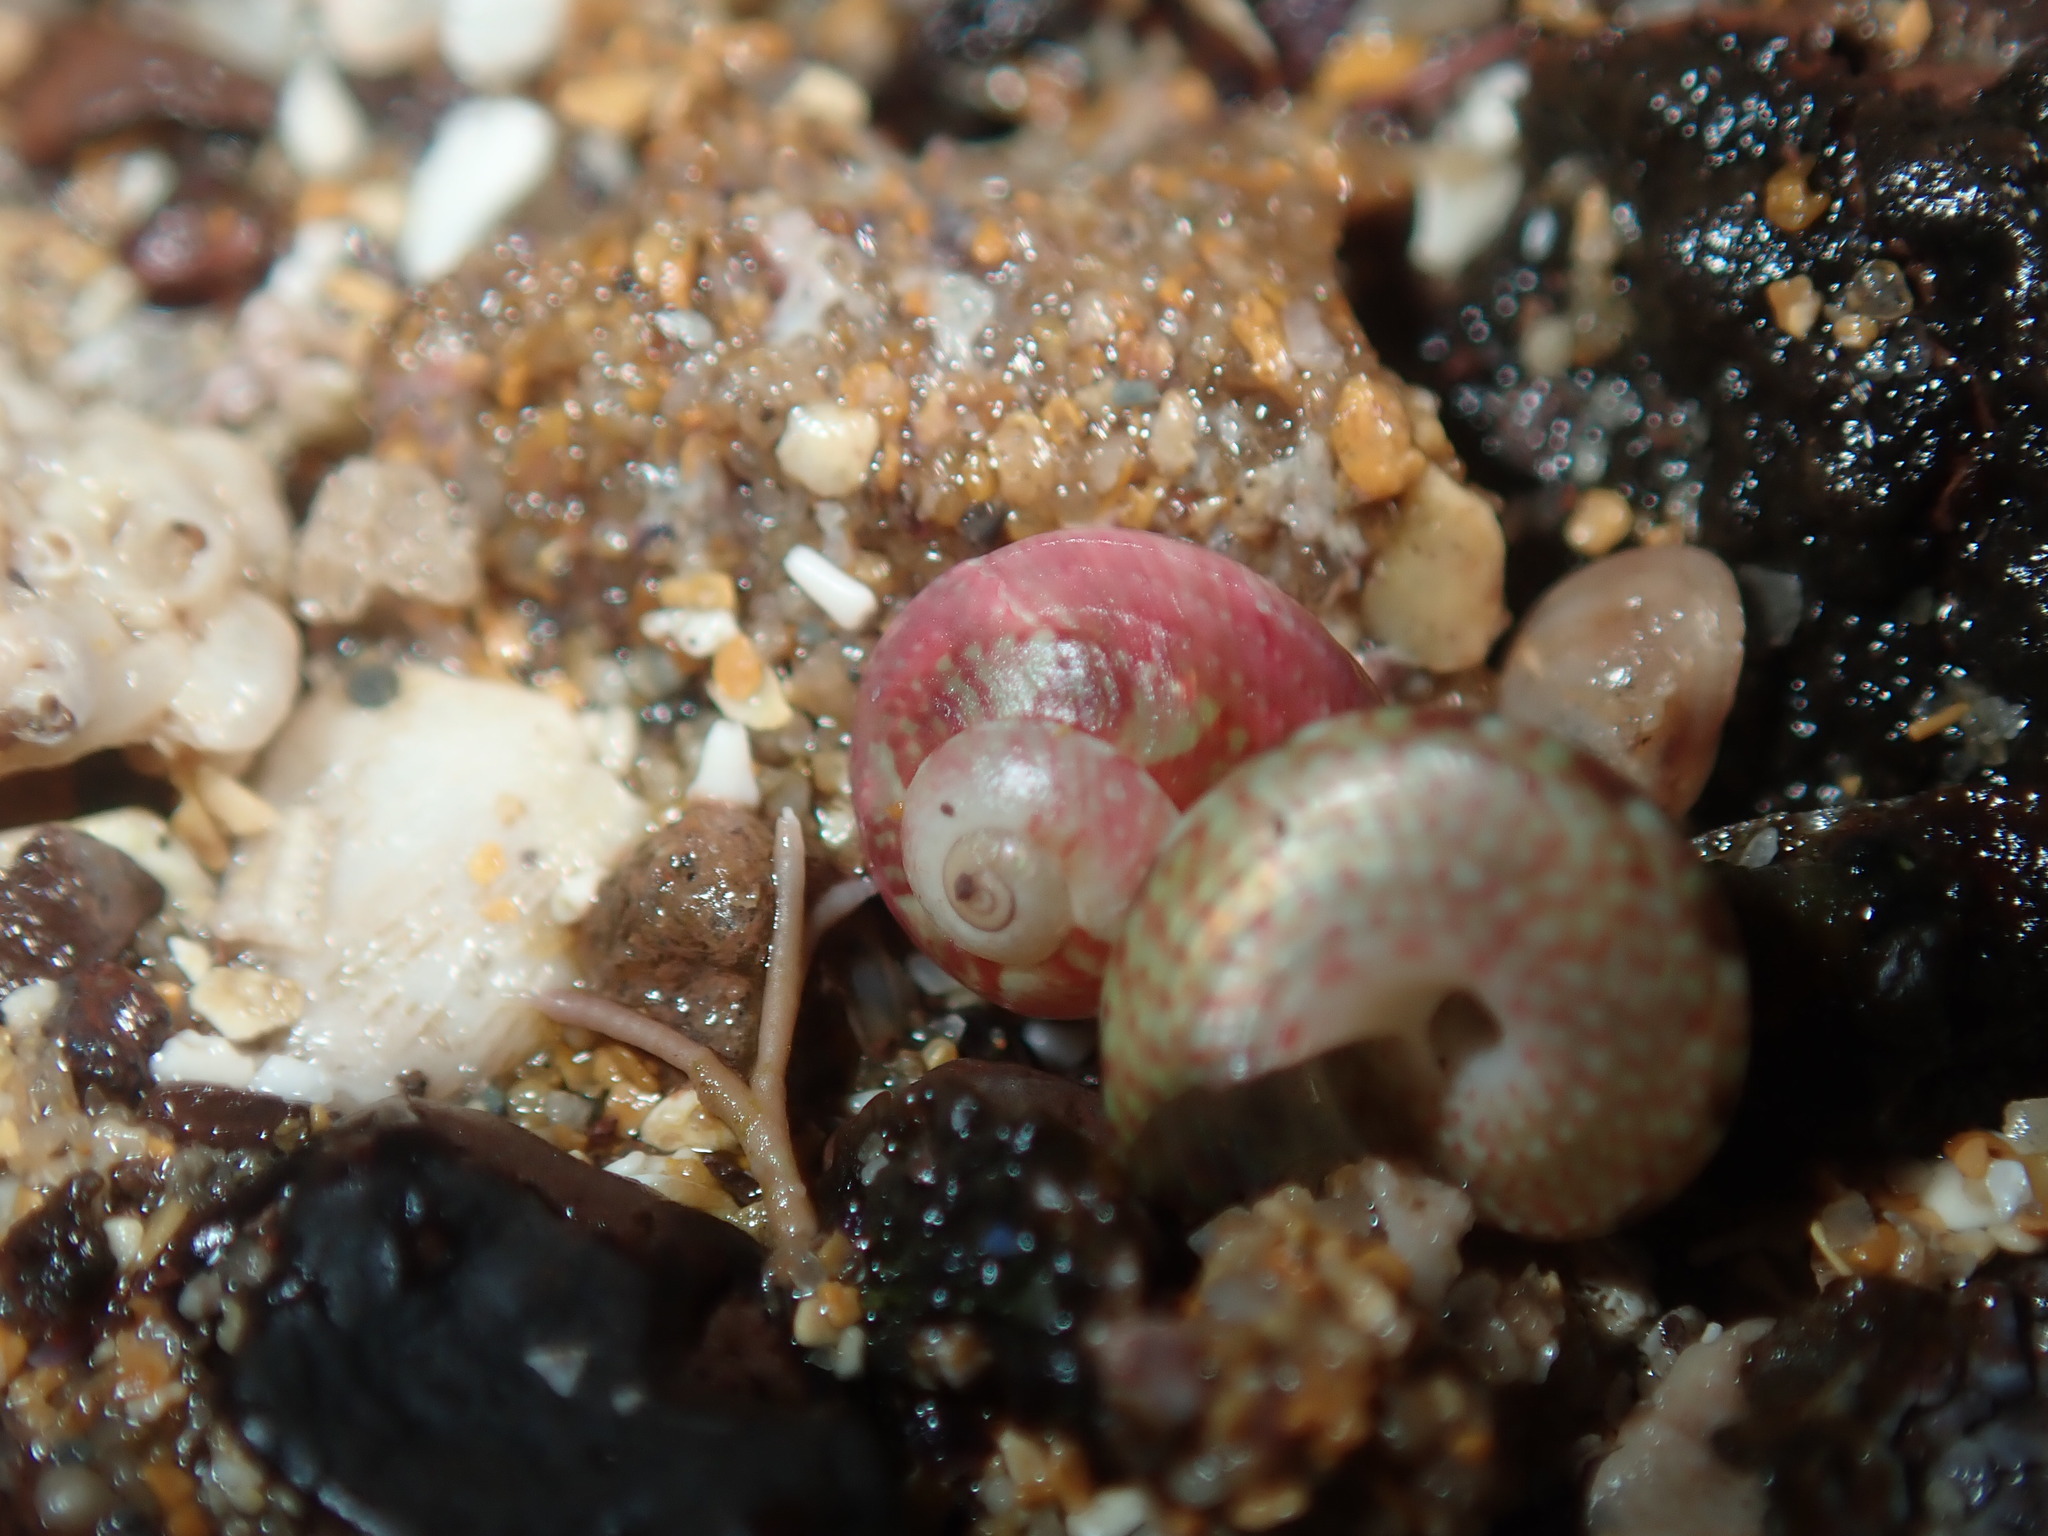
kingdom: Animalia
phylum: Mollusca
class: Gastropoda
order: Trochida
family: Trochidae
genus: Cantharidella
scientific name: Cantharidella picturata
